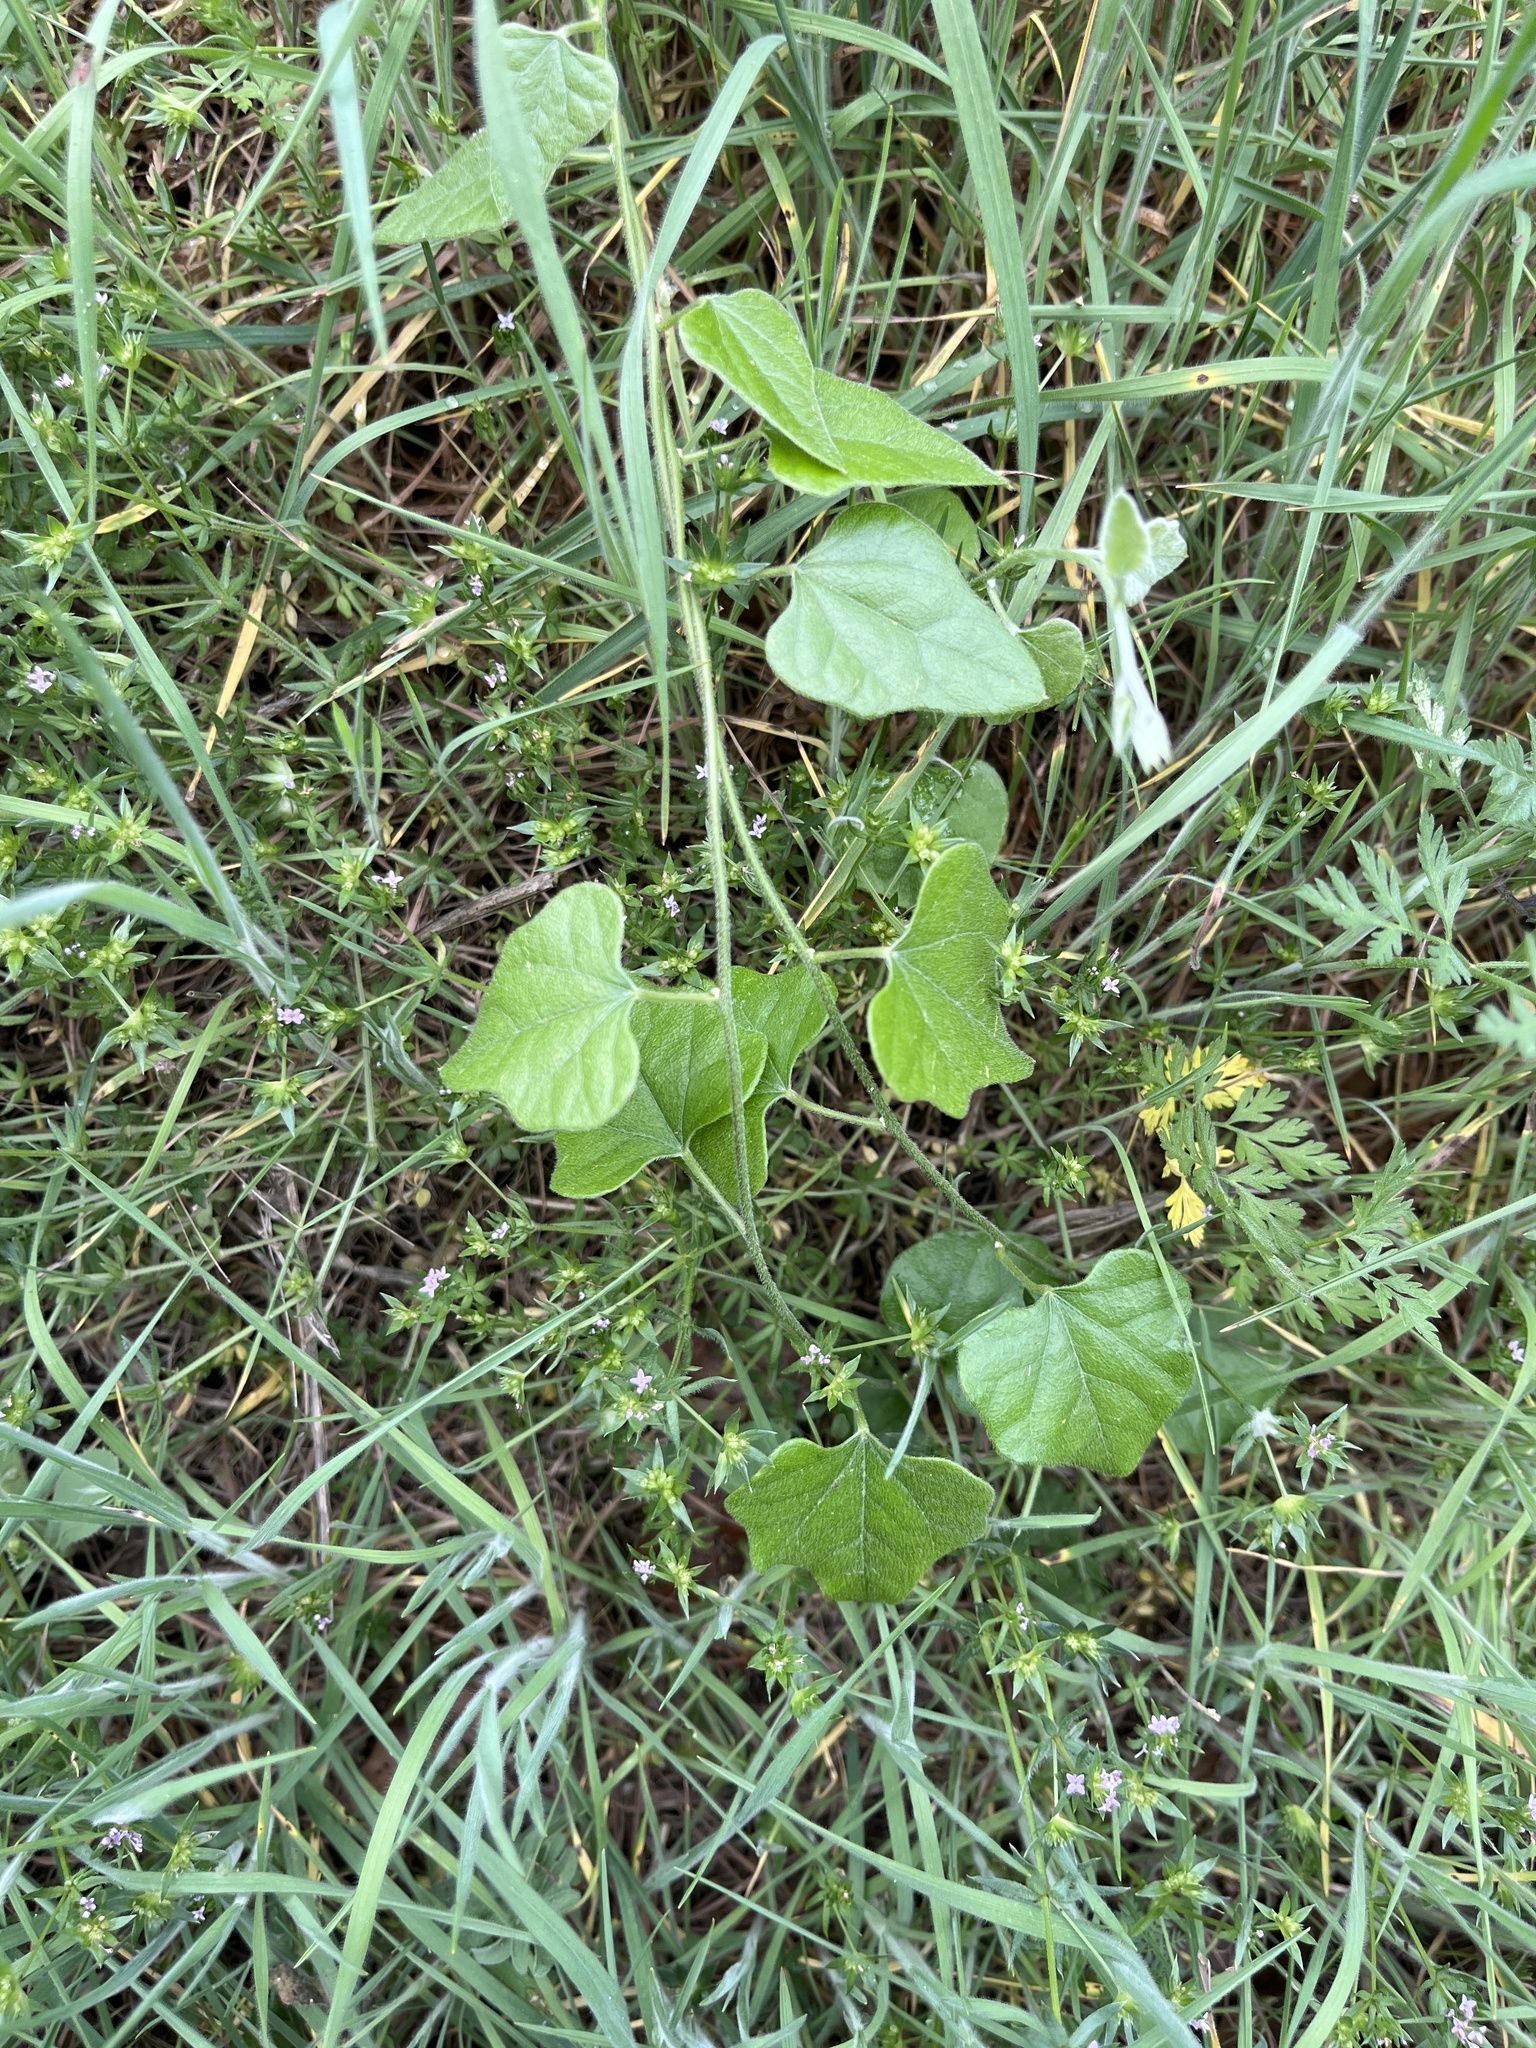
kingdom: Plantae
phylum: Tracheophyta
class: Magnoliopsida
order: Ranunculales
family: Menispermaceae
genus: Cocculus
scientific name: Cocculus carolinus
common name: Carolina moonseed
